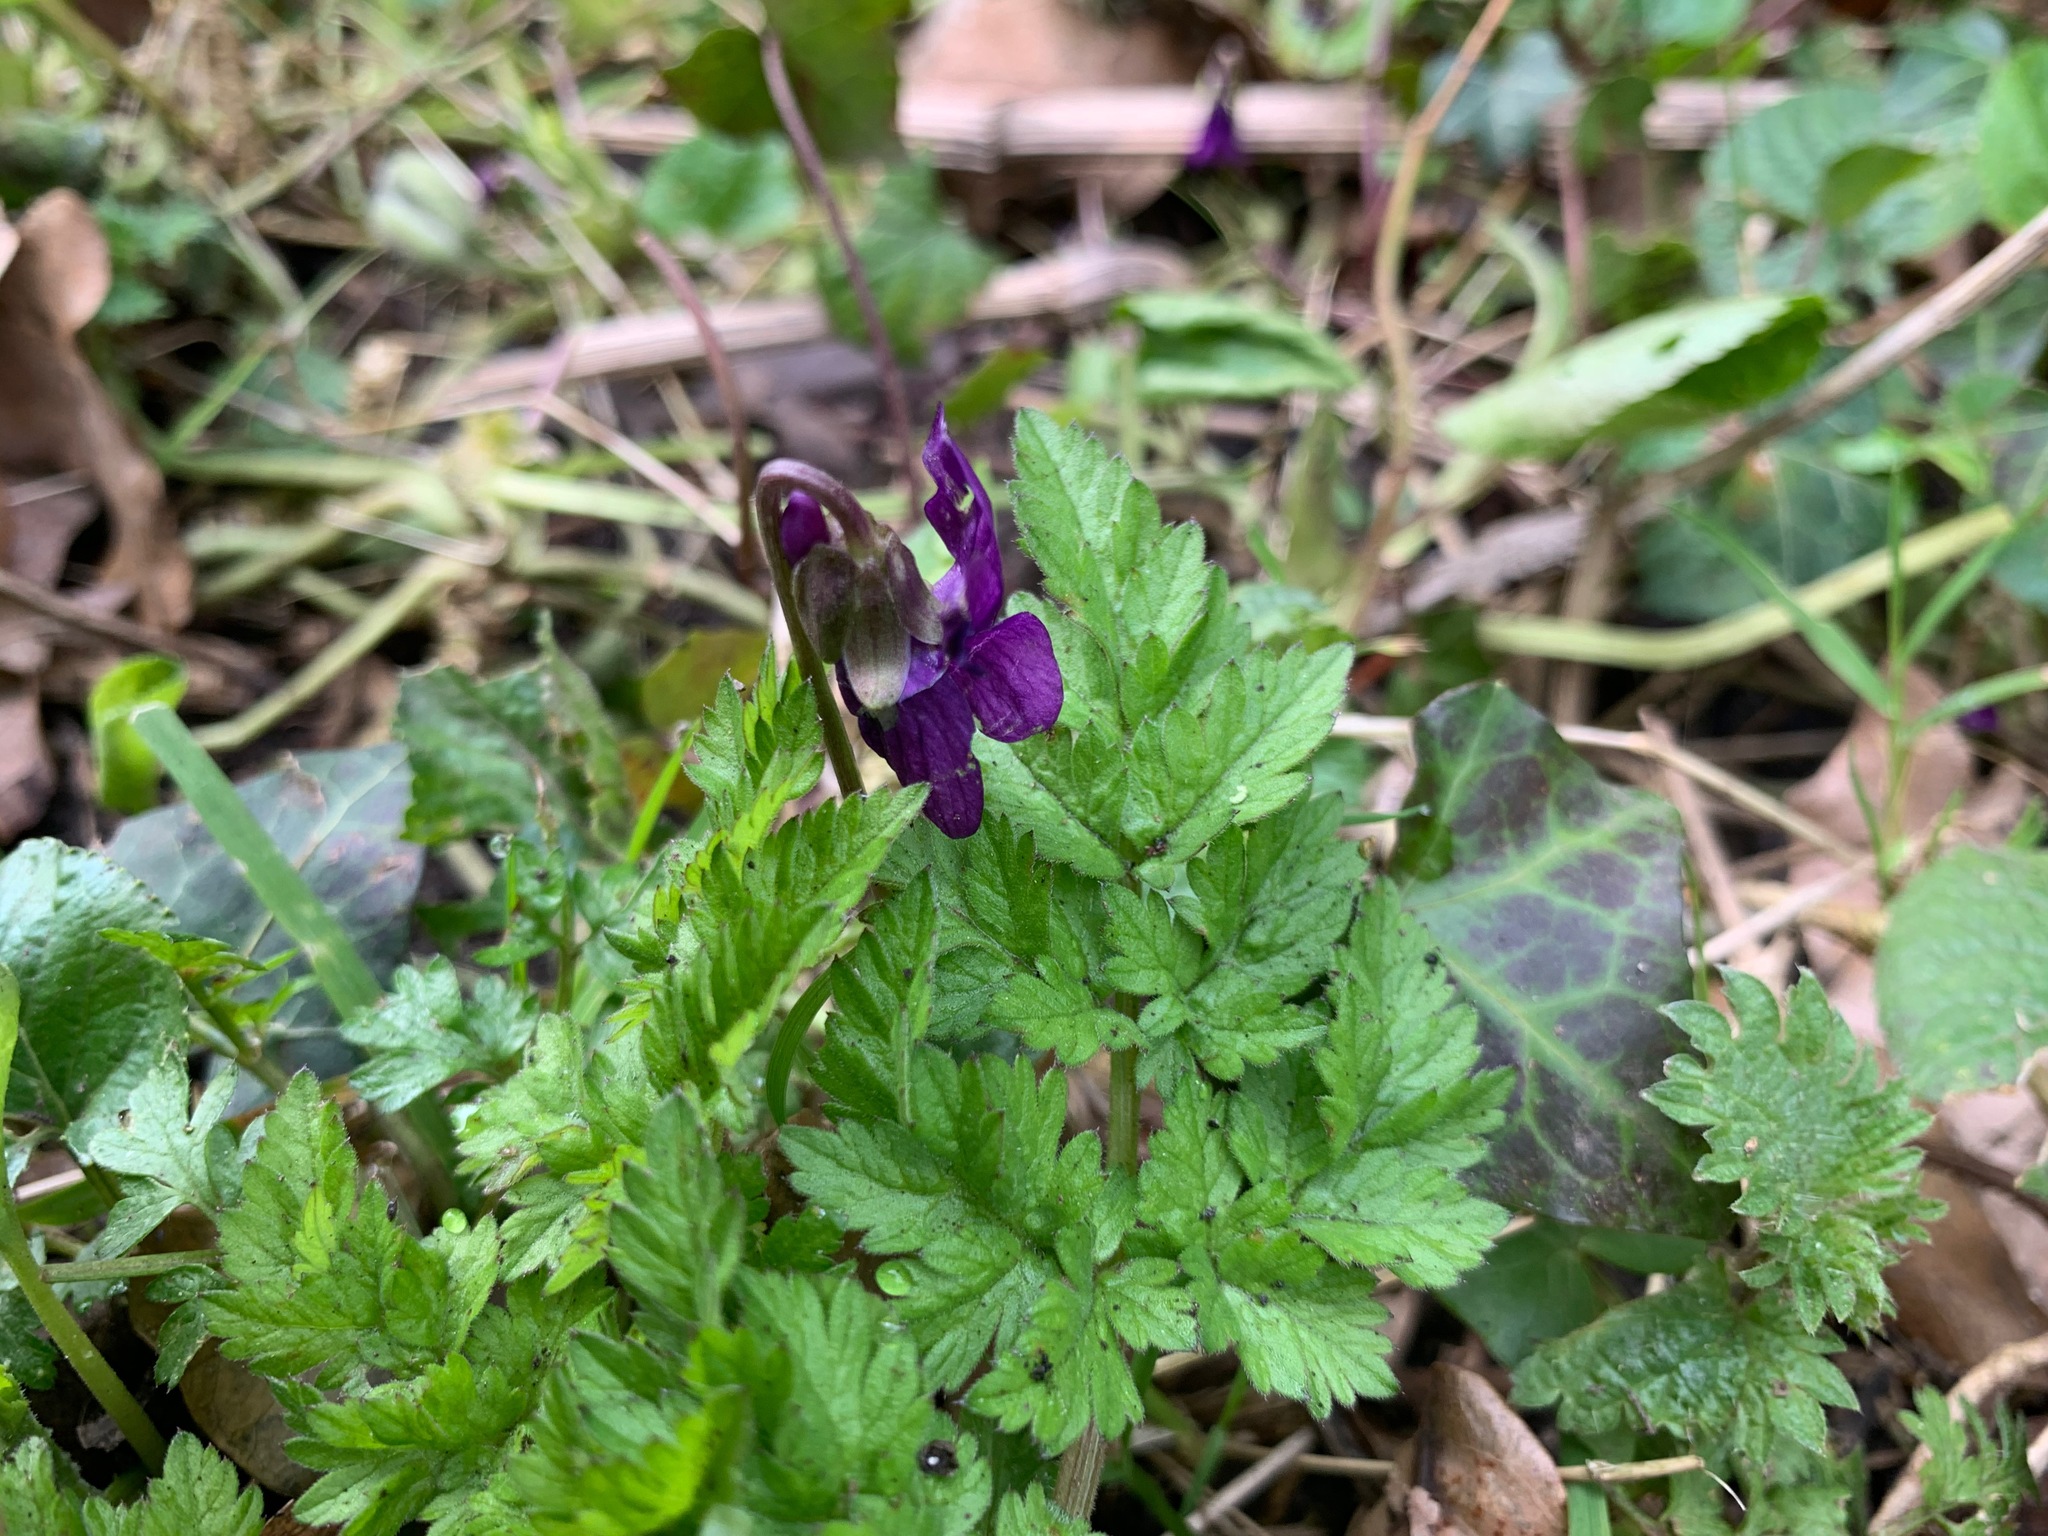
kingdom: Plantae
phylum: Tracheophyta
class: Magnoliopsida
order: Malpighiales
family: Violaceae
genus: Viola
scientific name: Viola odorata
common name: Sweet violet
